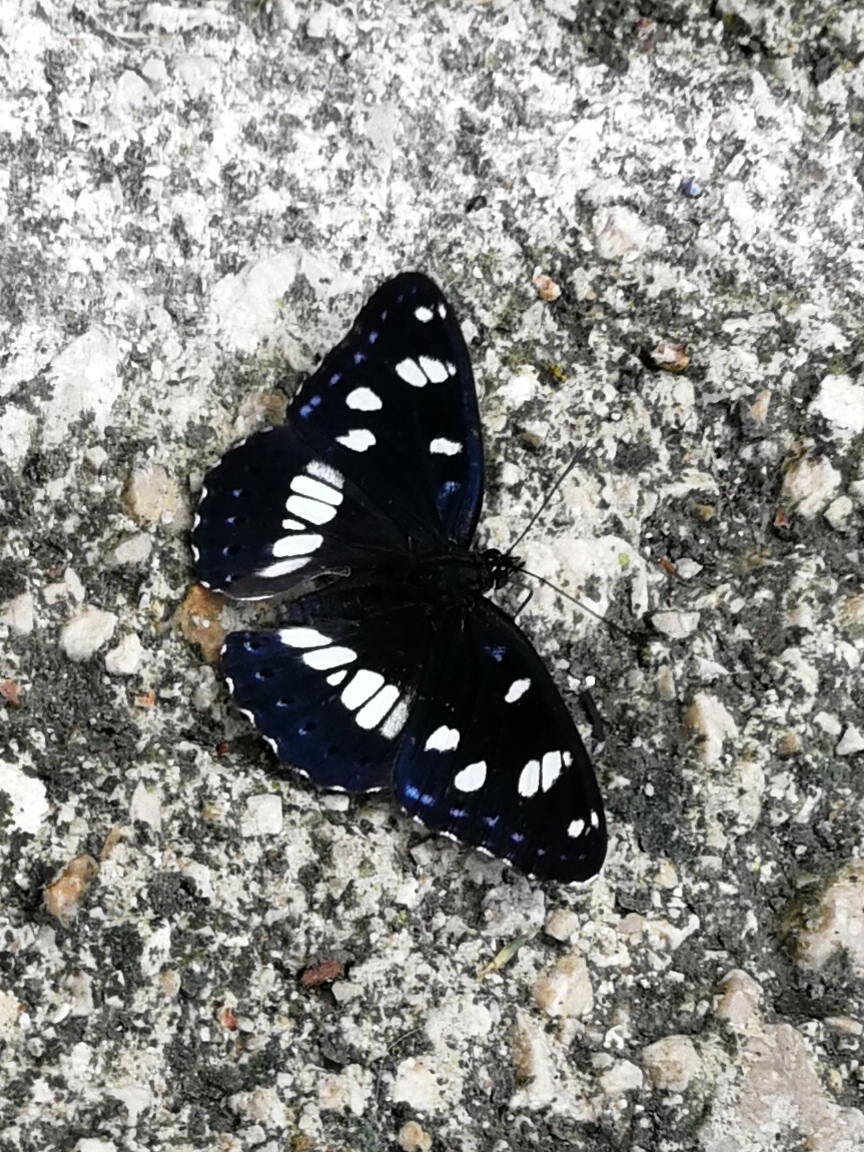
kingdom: Animalia
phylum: Arthropoda
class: Insecta
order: Lepidoptera
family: Nymphalidae
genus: Limenitis
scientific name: Limenitis reducta
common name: Southern white admiral
